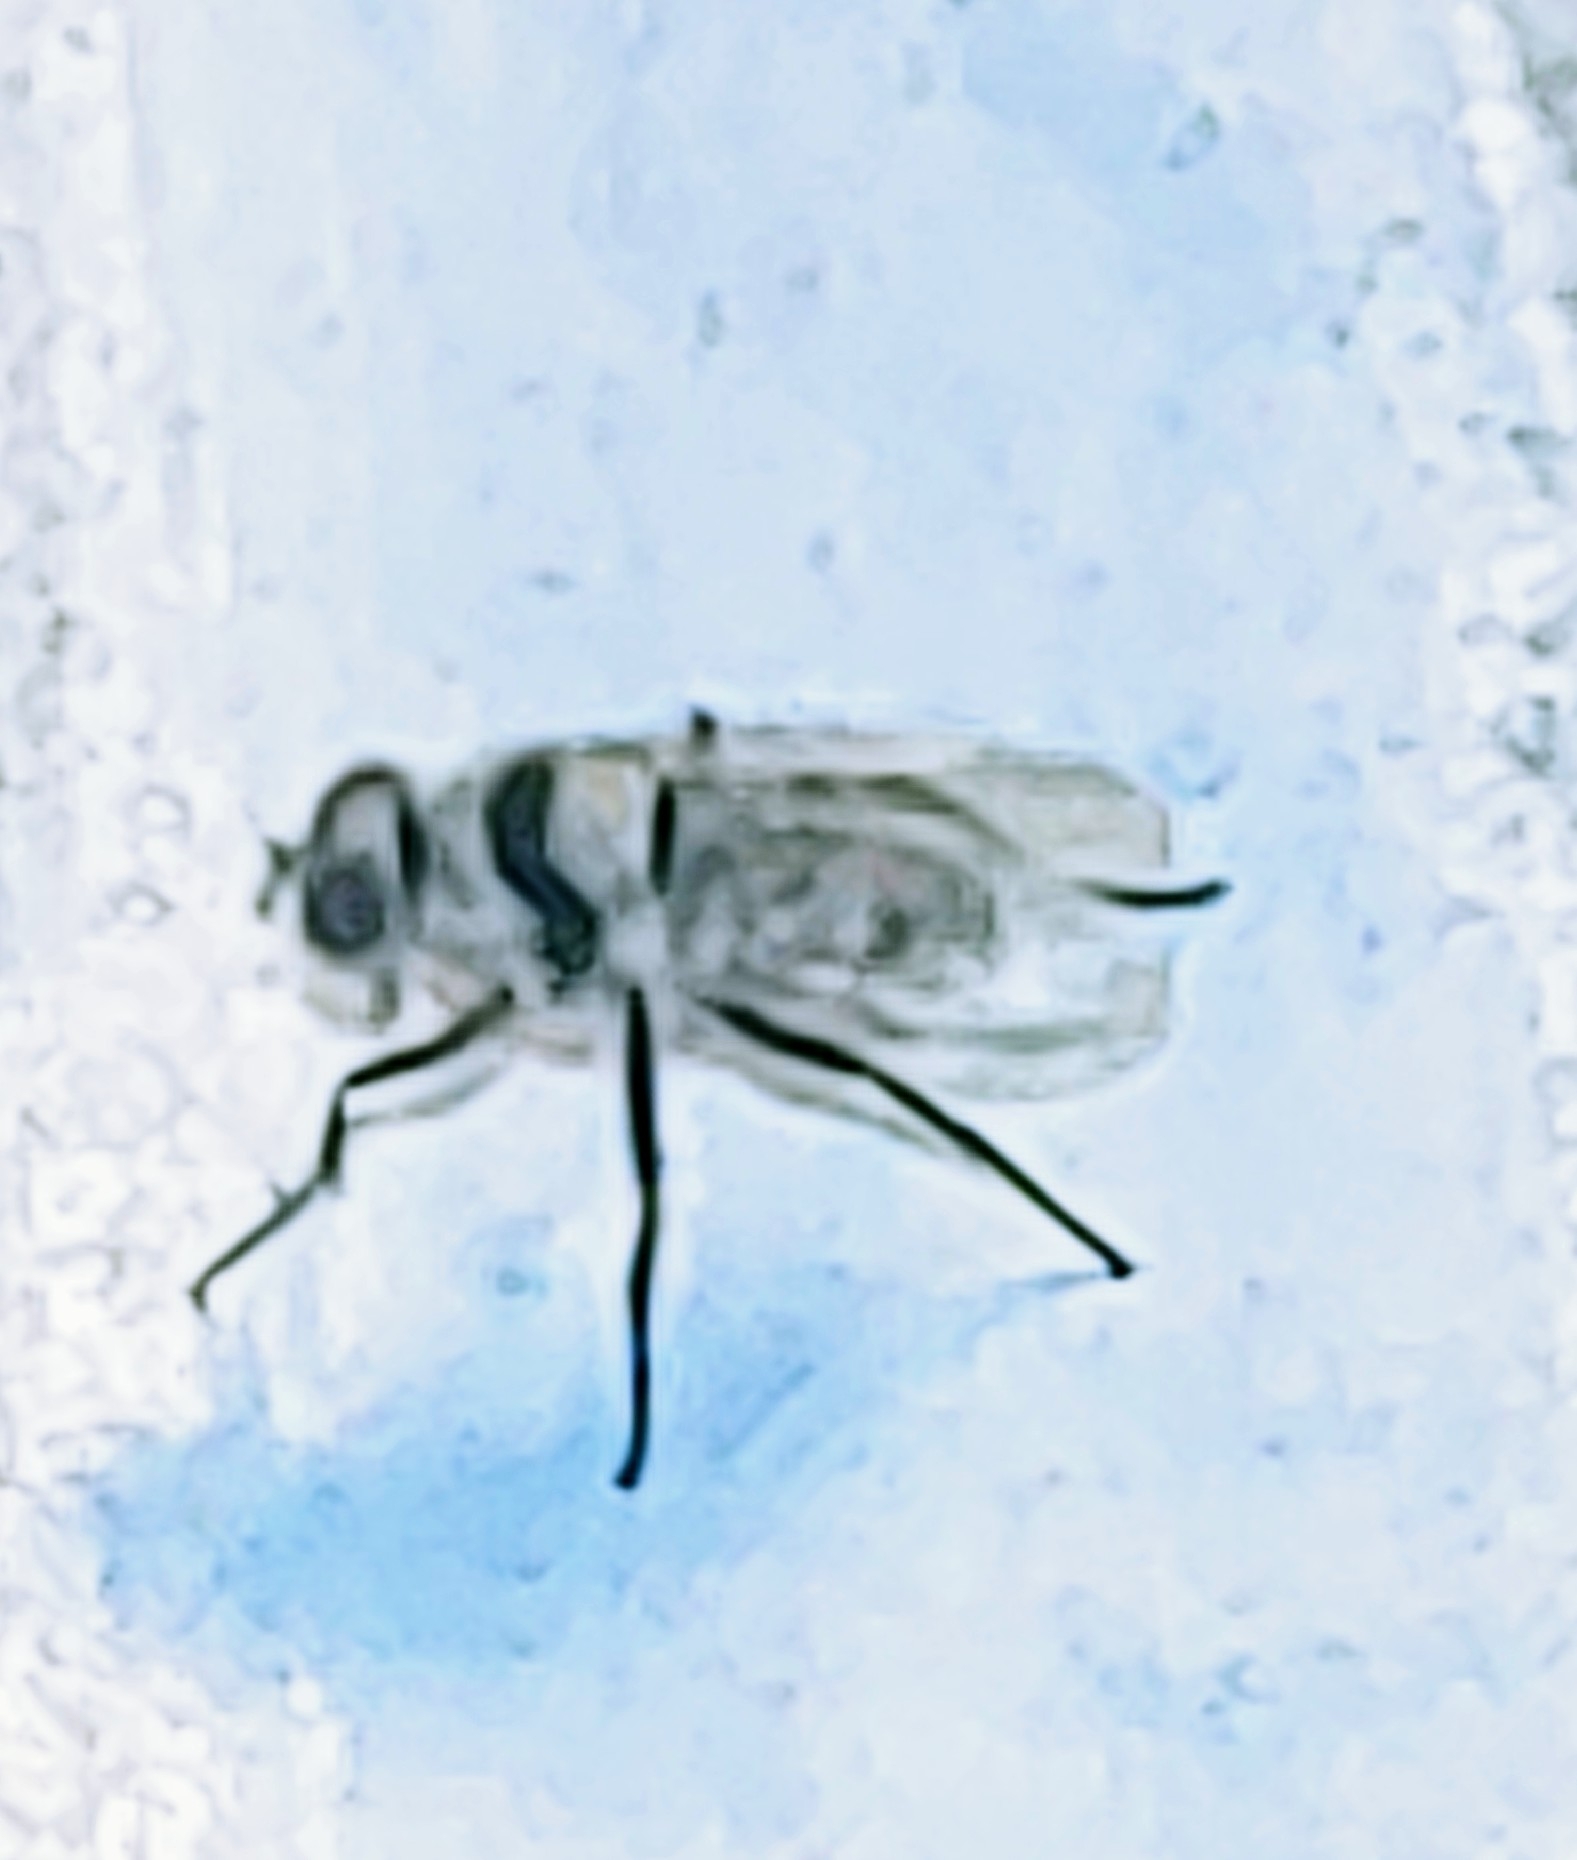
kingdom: Animalia
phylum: Arthropoda
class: Insecta
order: Diptera
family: Anthomyiidae
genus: Anthomyia
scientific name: Anthomyia illocata
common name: Fly
